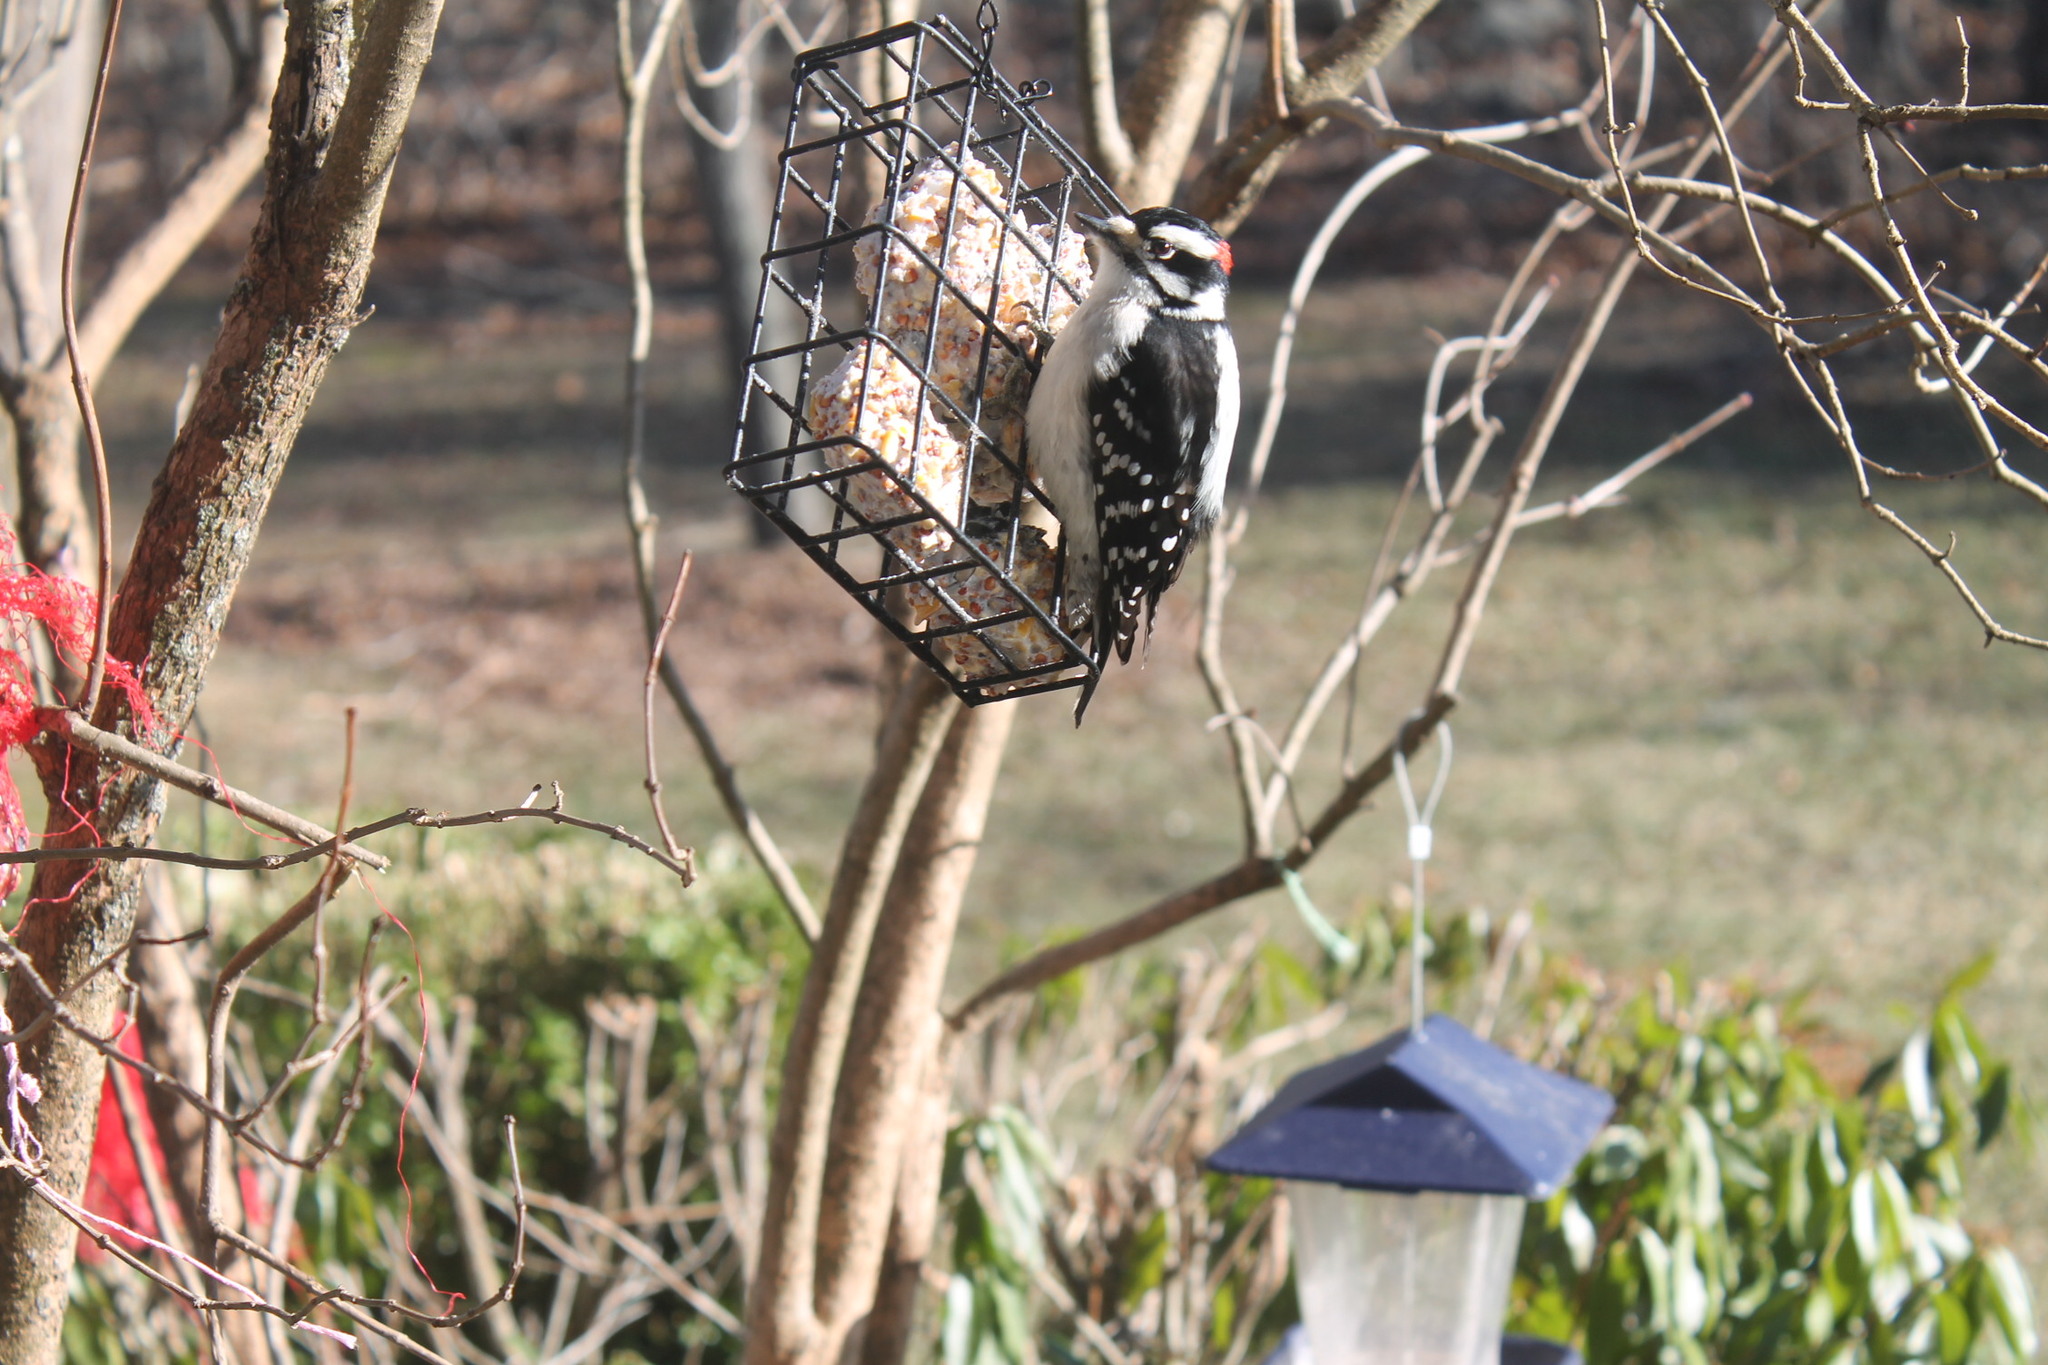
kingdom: Animalia
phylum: Chordata
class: Aves
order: Piciformes
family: Picidae
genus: Dryobates
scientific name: Dryobates pubescens
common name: Downy woodpecker
